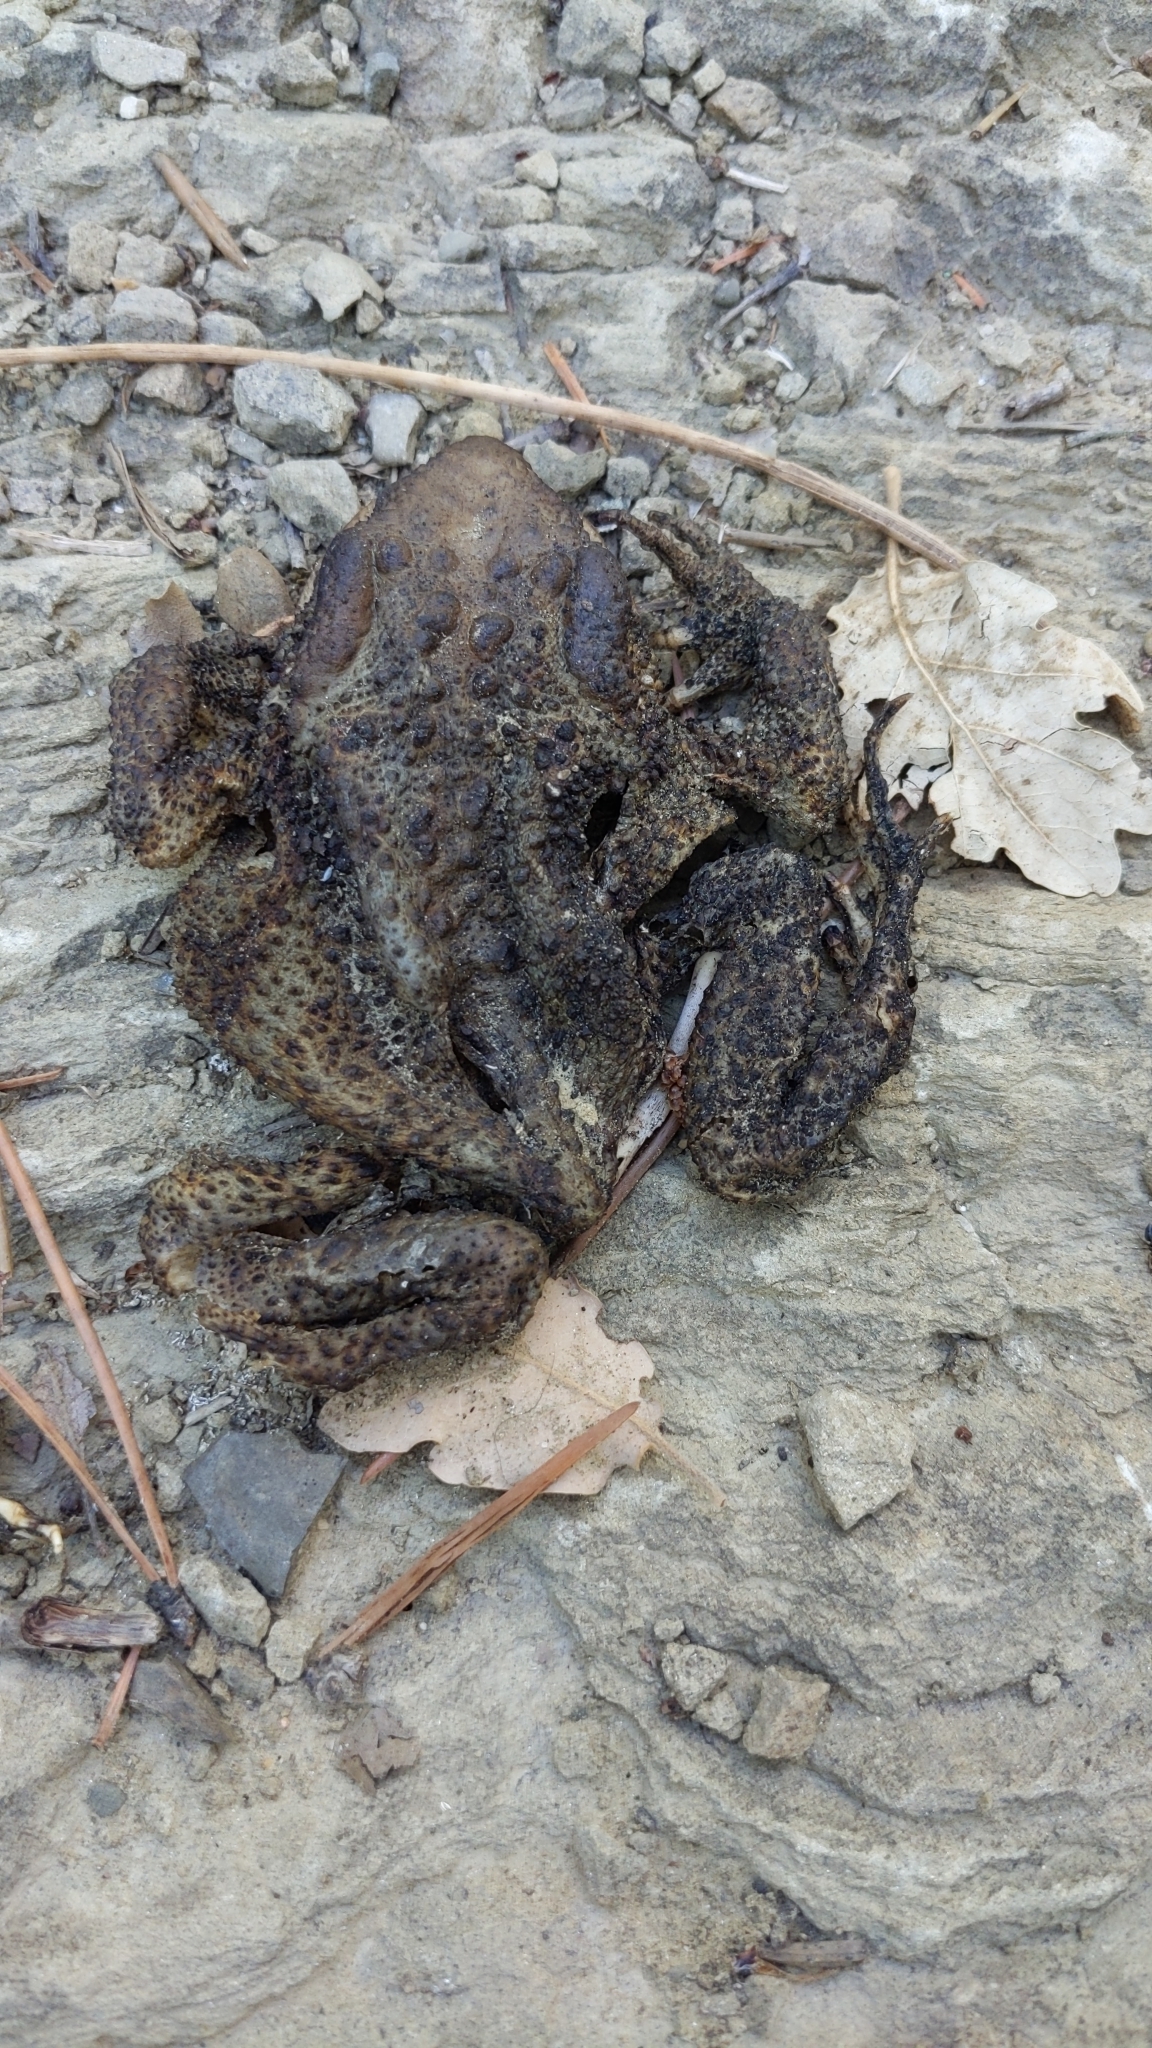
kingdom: Animalia
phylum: Chordata
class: Amphibia
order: Anura
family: Bufonidae
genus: Bufo
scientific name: Bufo bufo
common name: Common toad
